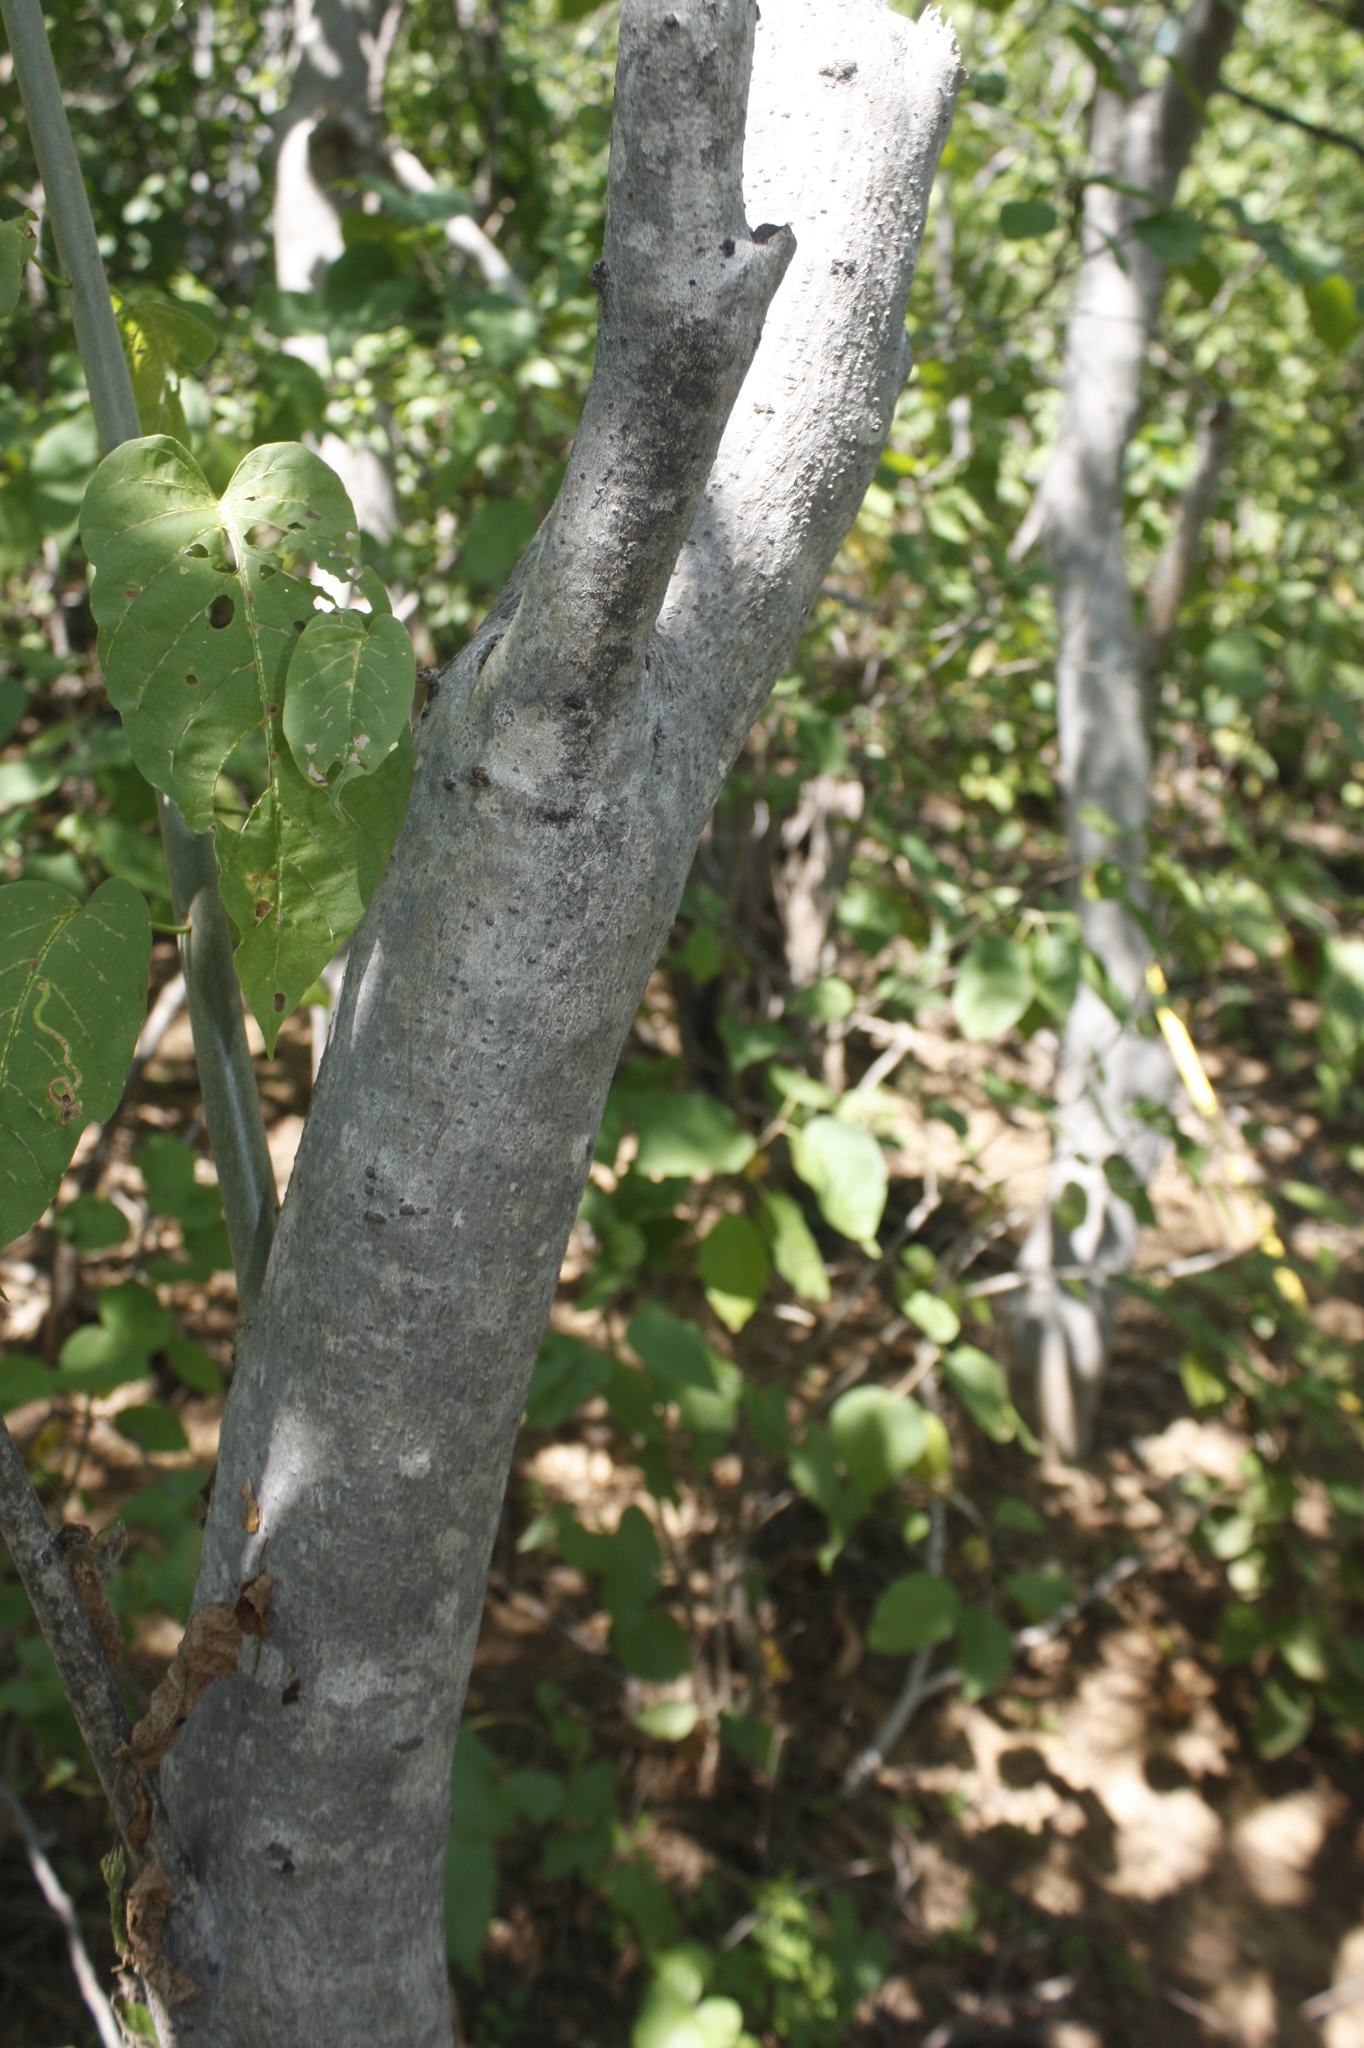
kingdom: Plantae
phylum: Tracheophyta
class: Magnoliopsida
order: Solanales
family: Convolvulaceae
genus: Ipomoea
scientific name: Ipomoea arborescens
